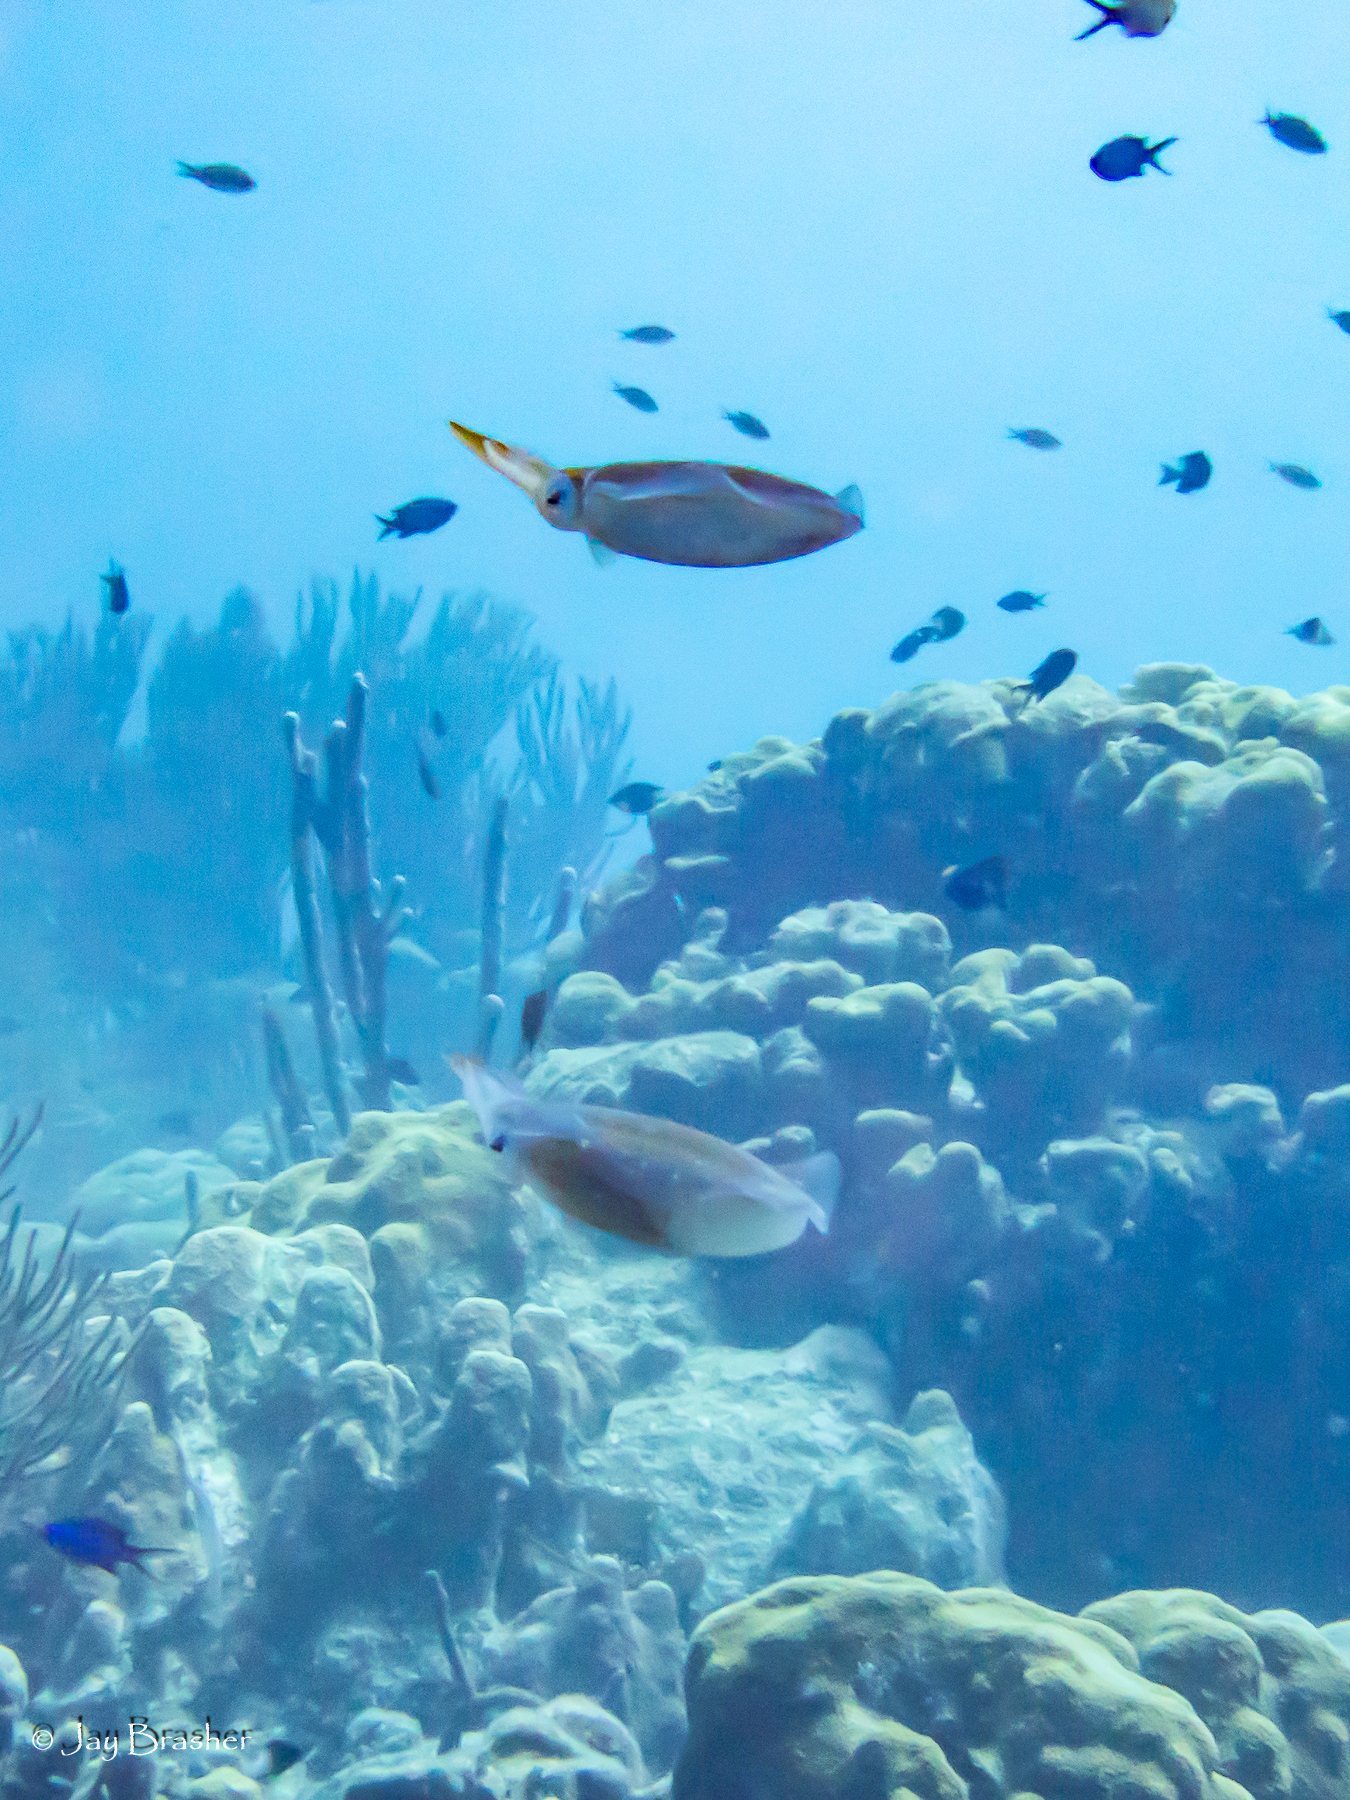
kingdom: Animalia
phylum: Mollusca
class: Cephalopoda
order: Myopsida
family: Loliginidae
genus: Sepioteuthis
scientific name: Sepioteuthis sepioidea
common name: Caribbean reef squid
